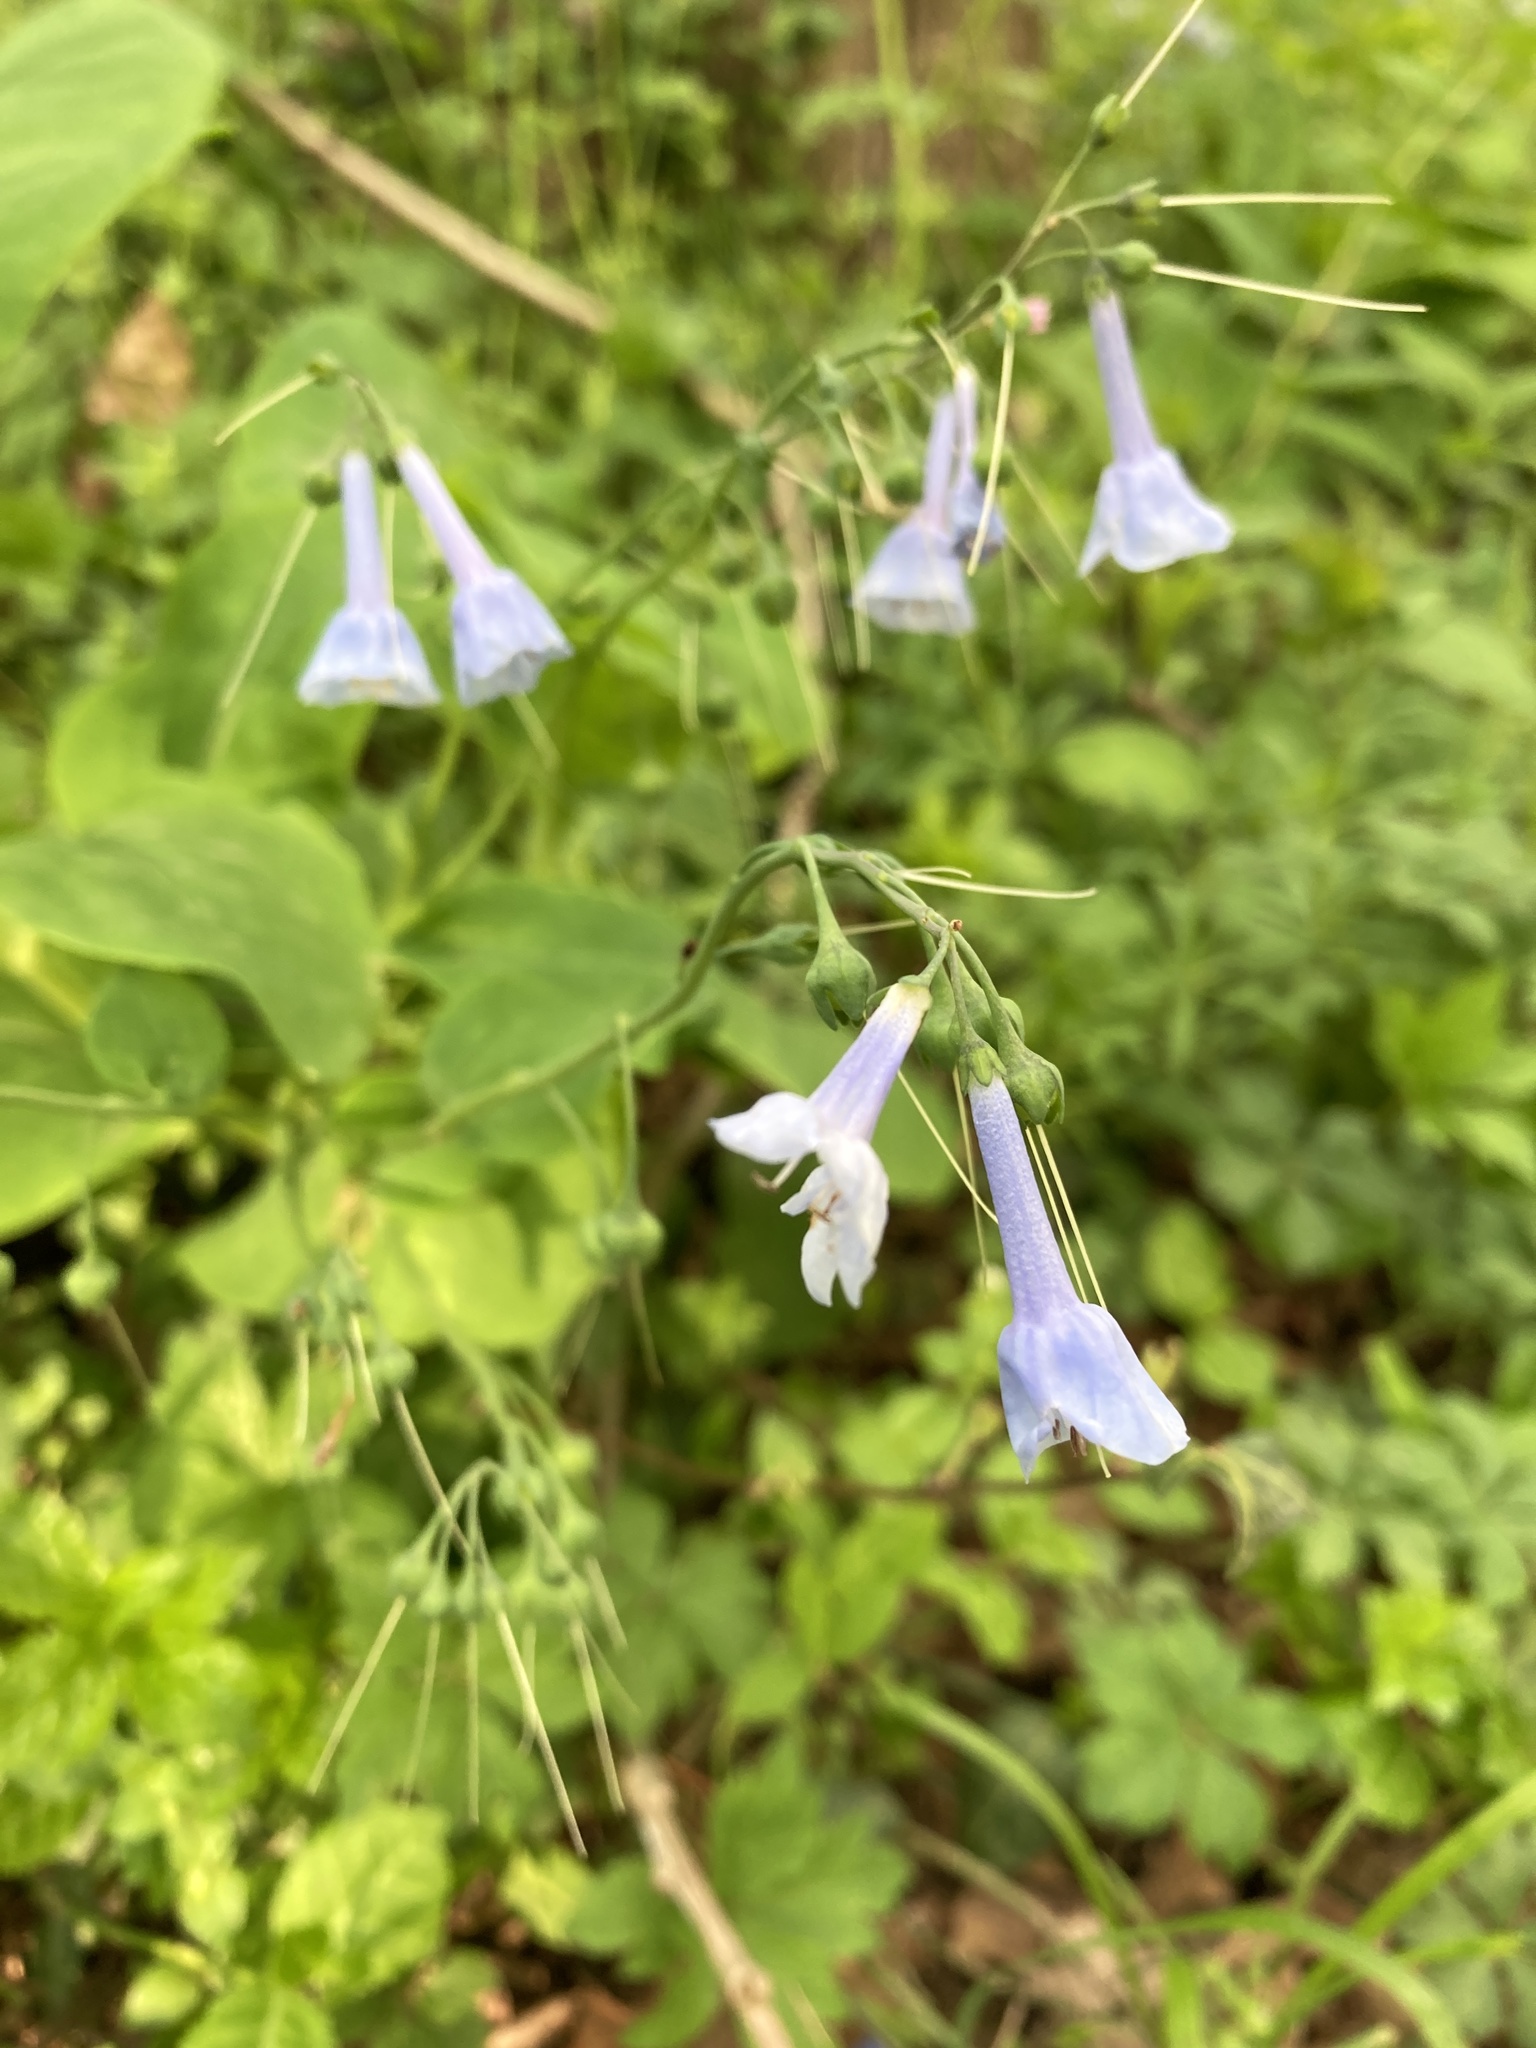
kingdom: Plantae
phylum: Tracheophyta
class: Magnoliopsida
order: Boraginales
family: Boraginaceae
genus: Mertensia
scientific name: Mertensia virginica
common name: Virginia bluebells
